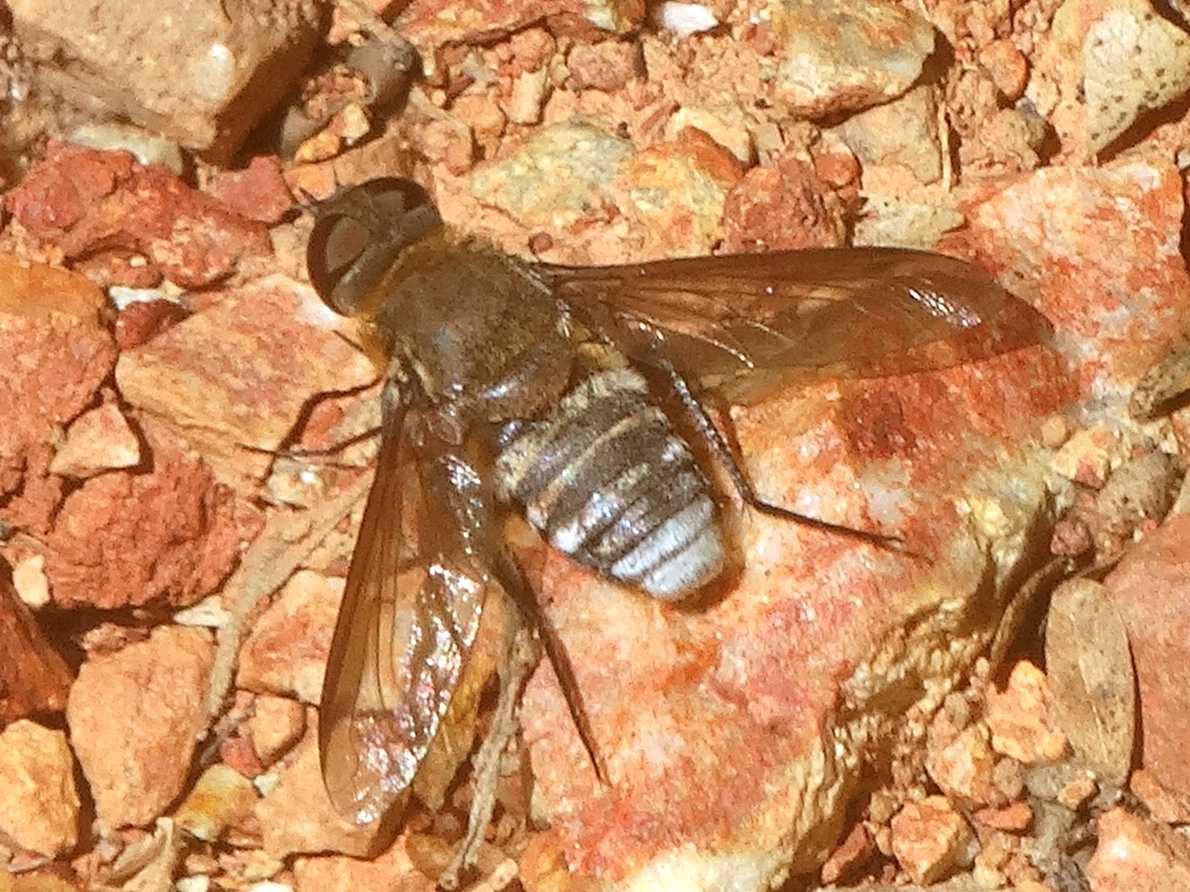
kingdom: Animalia
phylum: Arthropoda
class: Insecta
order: Diptera
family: Bombyliidae
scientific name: Bombyliidae
